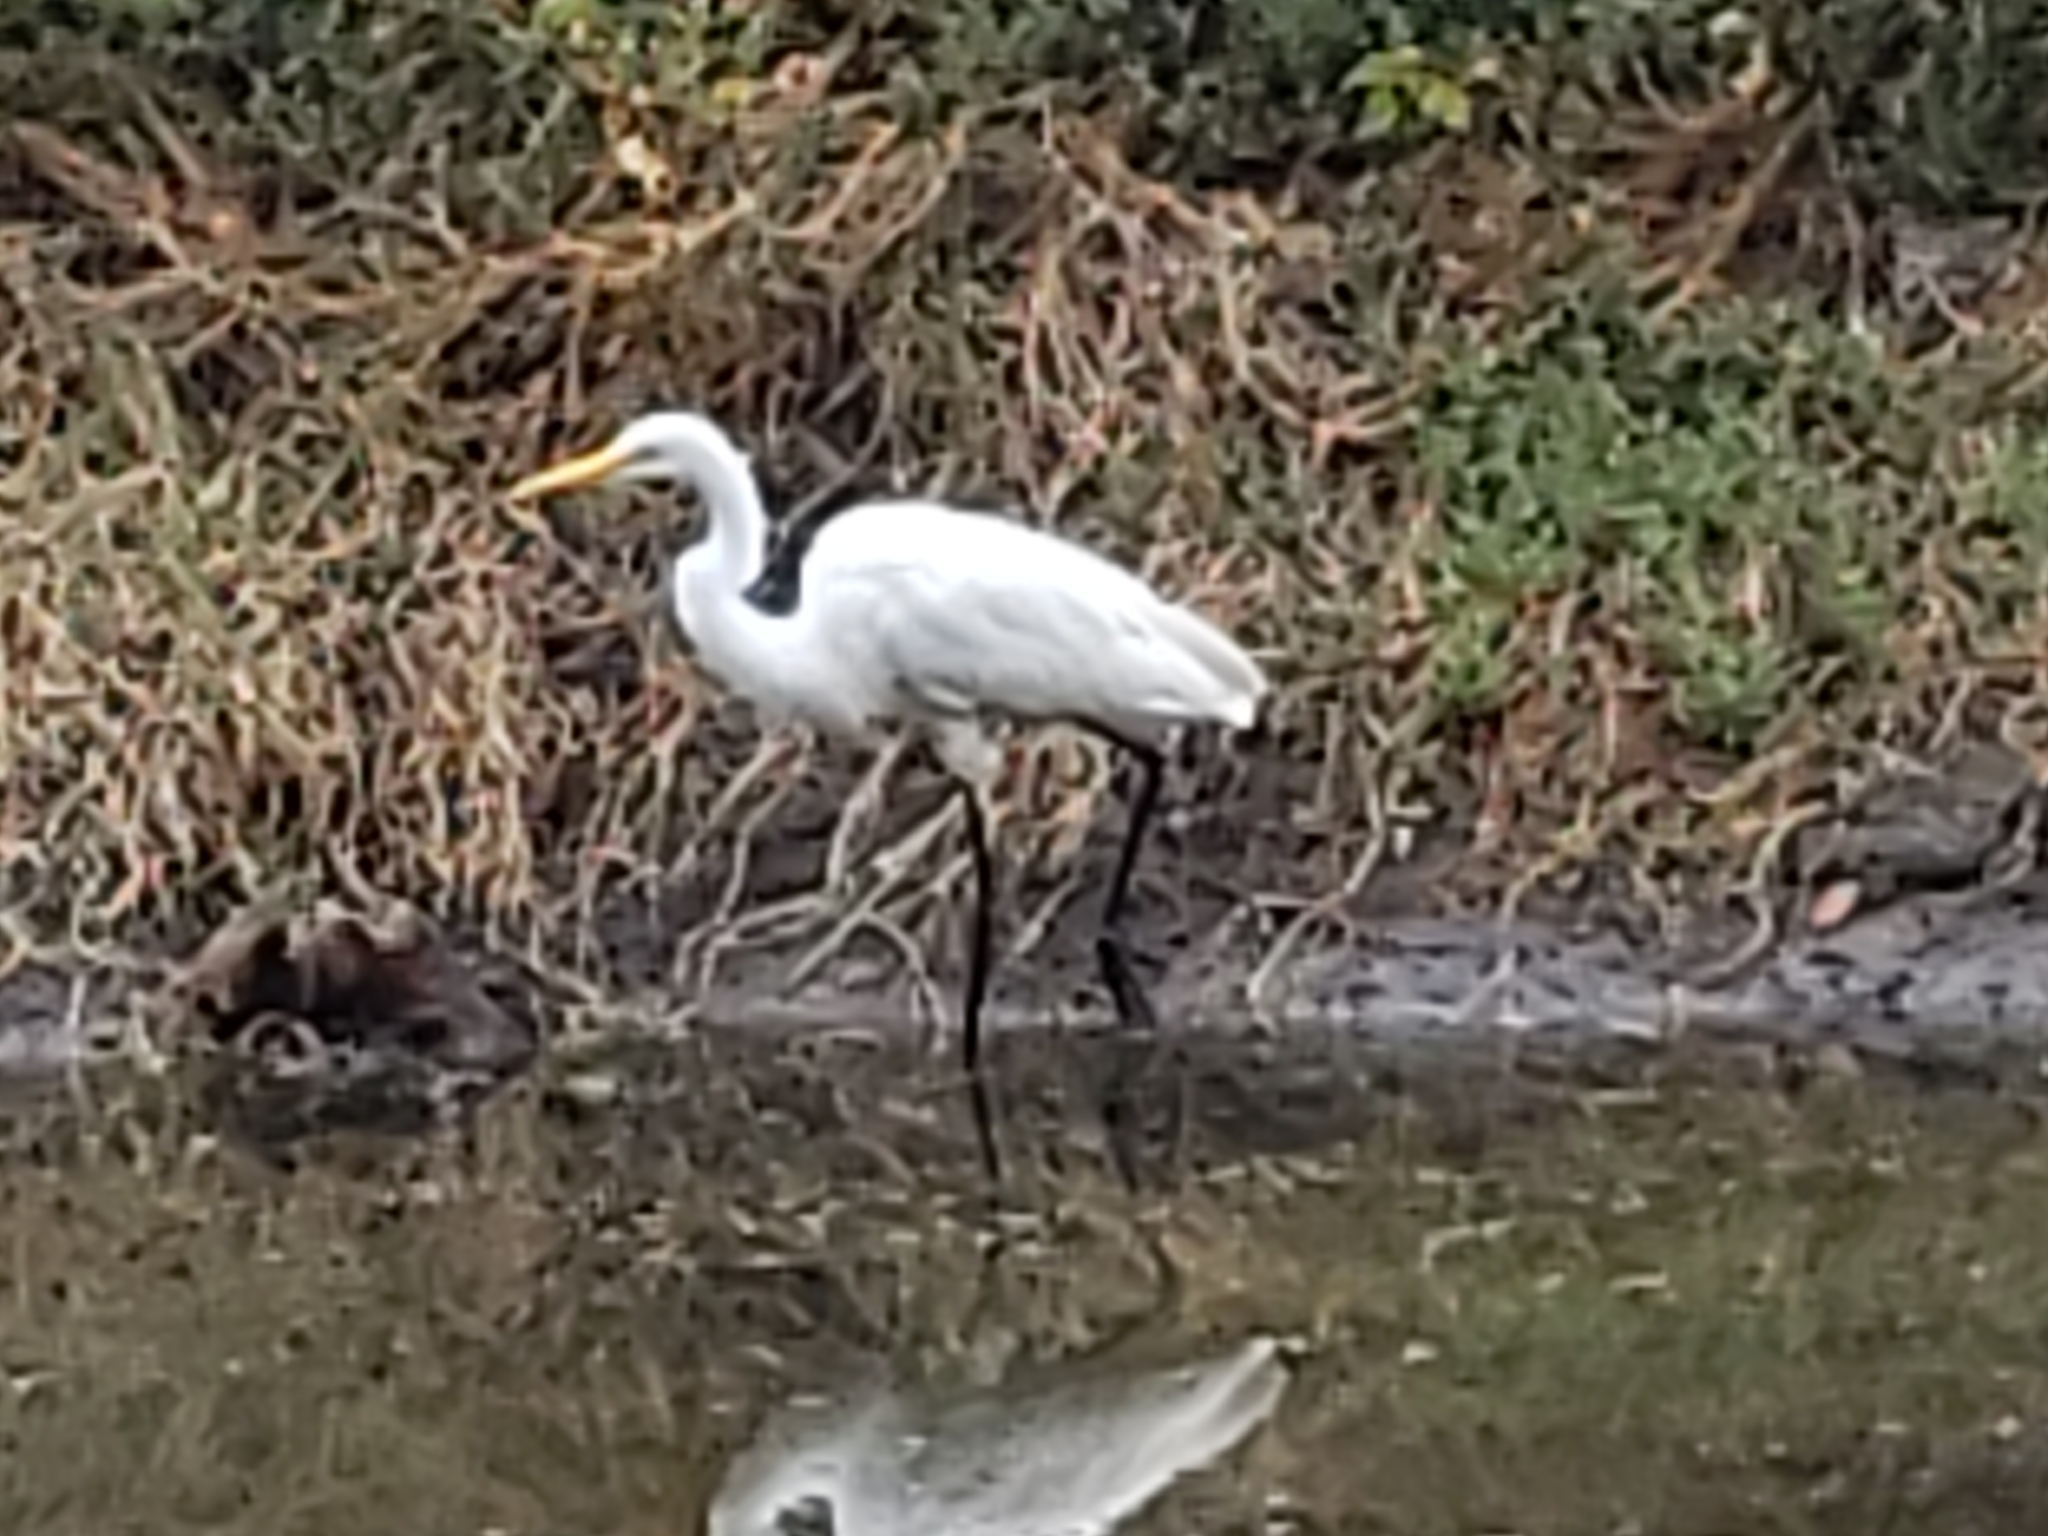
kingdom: Animalia
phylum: Chordata
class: Aves
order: Pelecaniformes
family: Ardeidae
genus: Ardea
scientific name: Ardea alba
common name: Great egret
